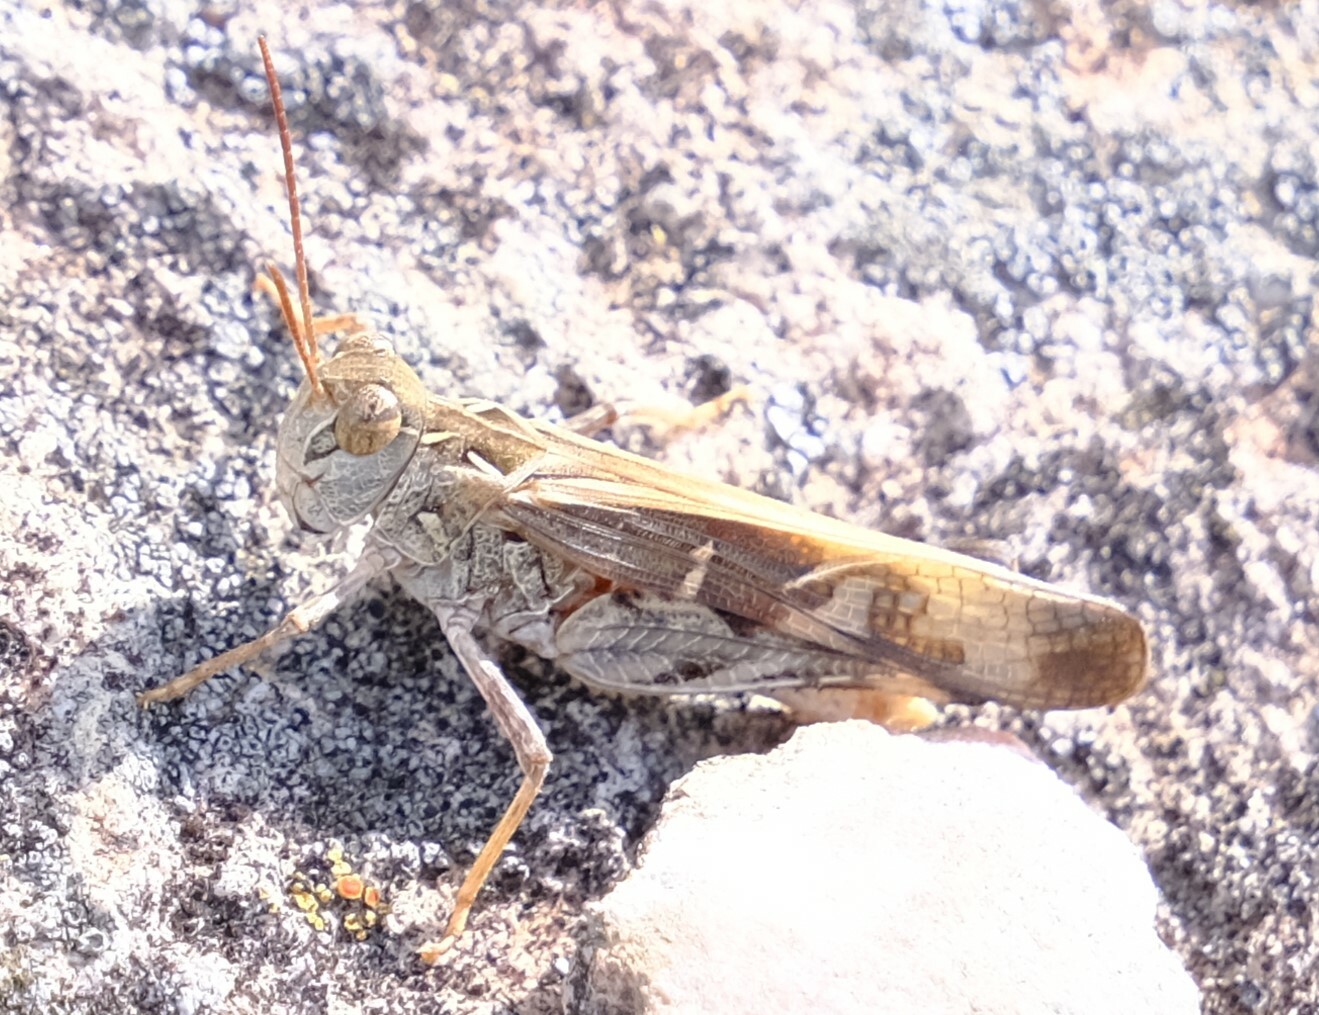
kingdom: Animalia
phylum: Arthropoda
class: Insecta
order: Orthoptera
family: Acrididae
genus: Oedaleus
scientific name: Oedaleus australis
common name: Eastern oedaleus
